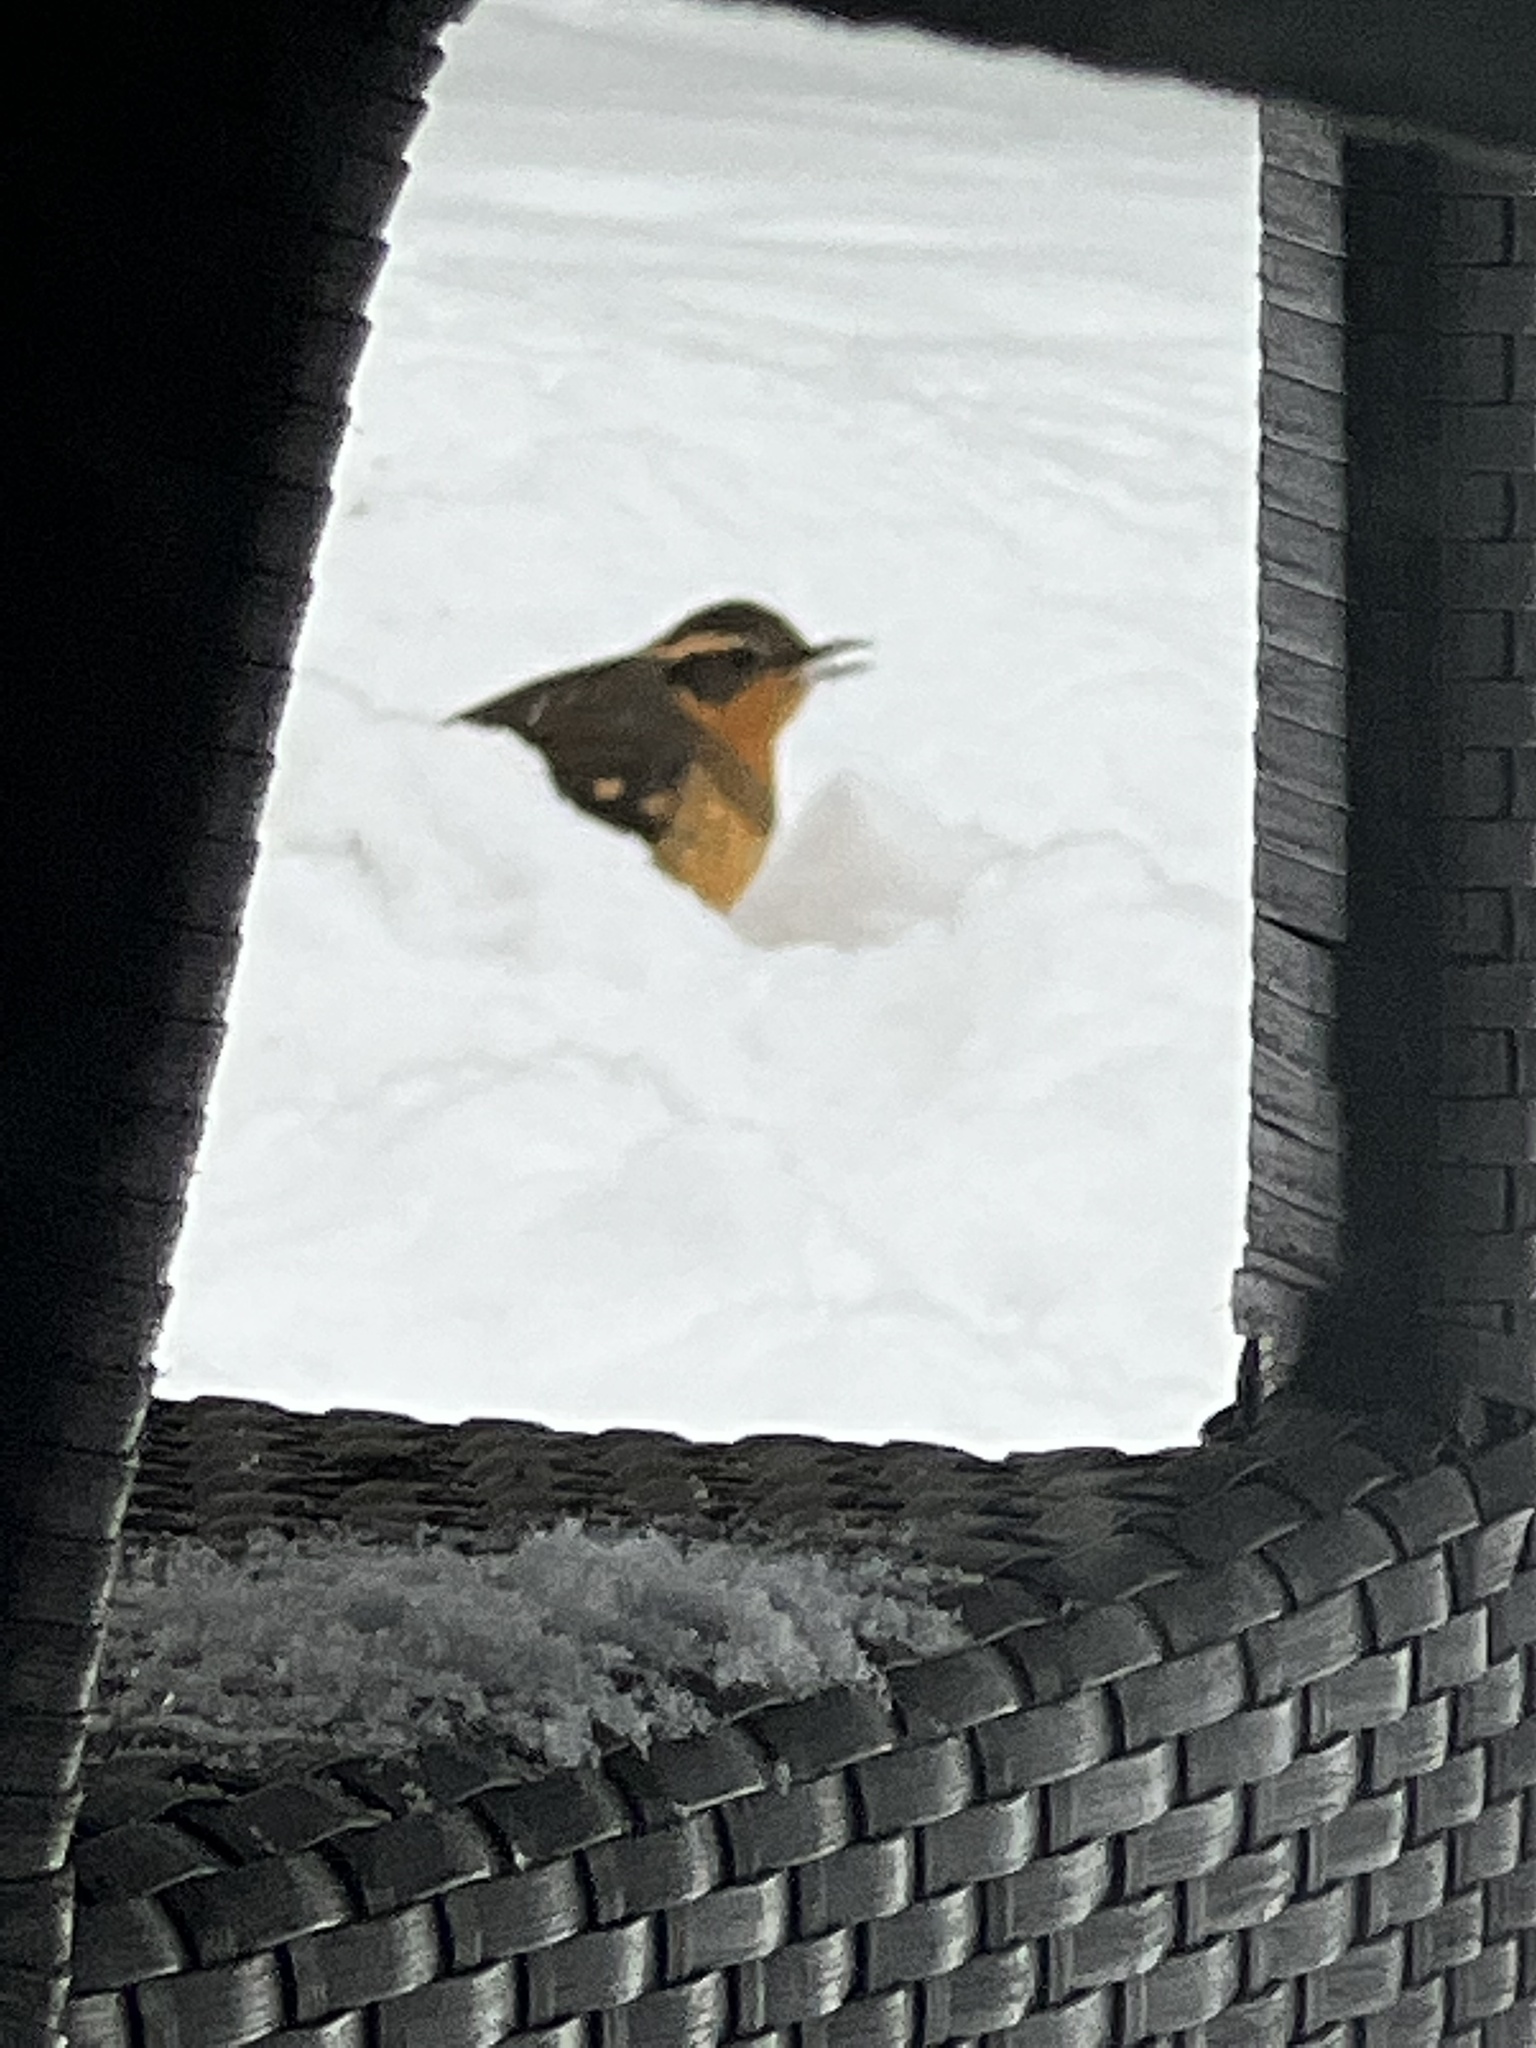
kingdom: Animalia
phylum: Chordata
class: Aves
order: Passeriformes
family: Turdidae
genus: Ixoreus
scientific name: Ixoreus naevius
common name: Varied thrush
